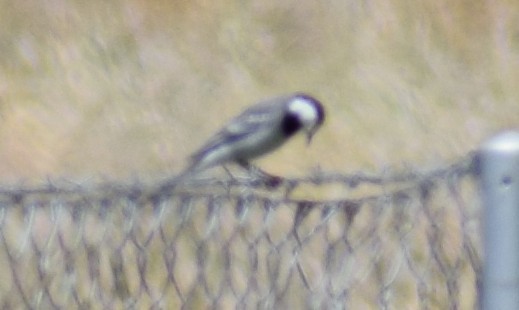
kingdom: Animalia
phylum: Chordata
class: Aves
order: Passeriformes
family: Motacillidae
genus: Motacilla
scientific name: Motacilla alba
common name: White wagtail
